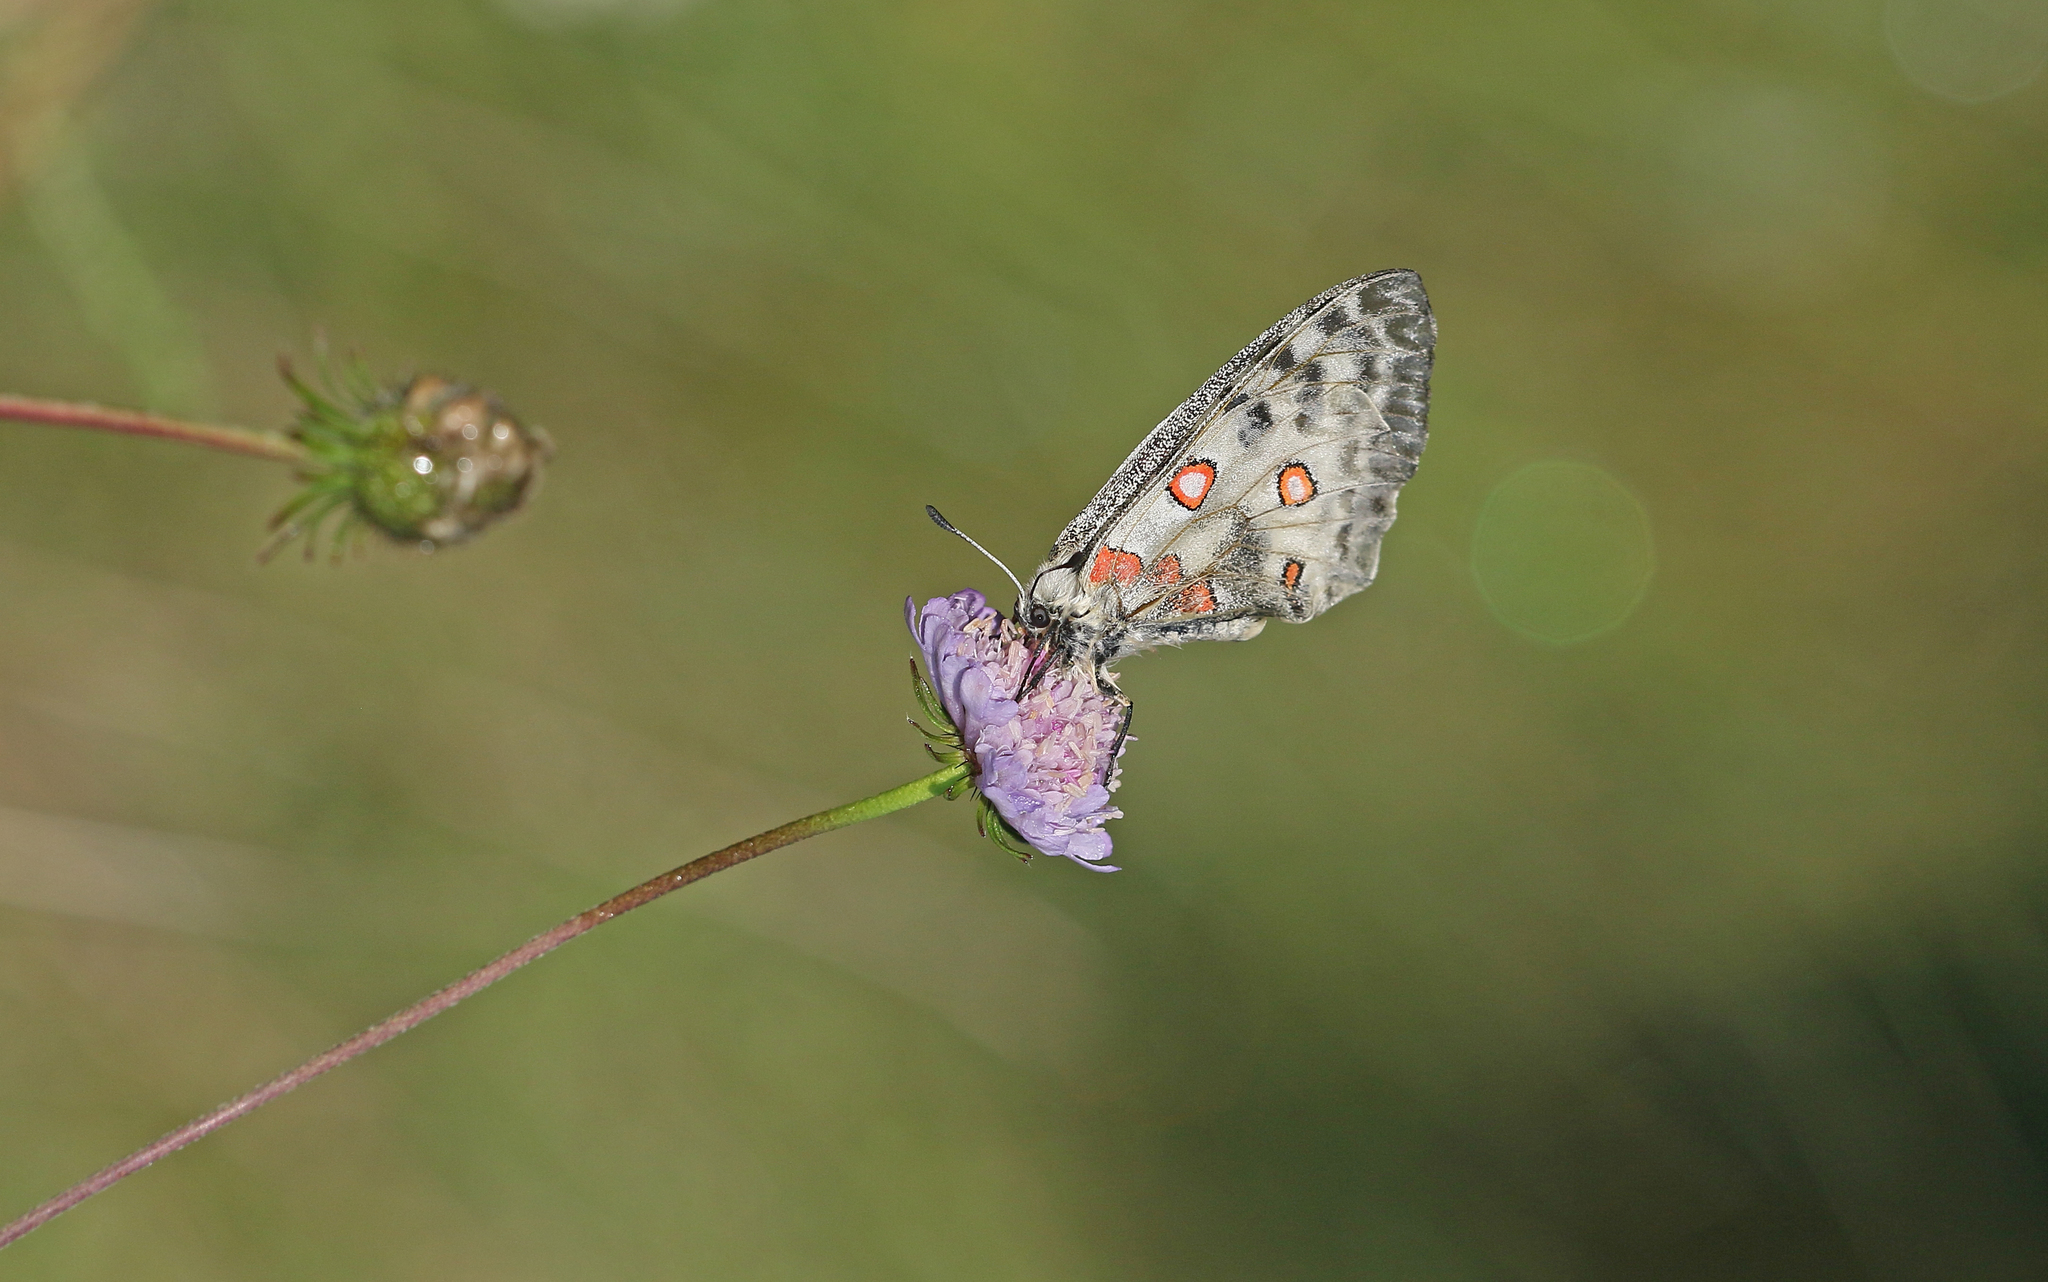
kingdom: Animalia
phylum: Arthropoda
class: Insecta
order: Lepidoptera
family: Papilionidae
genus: Parnassius
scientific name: Parnassius apollo
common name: Apollo
